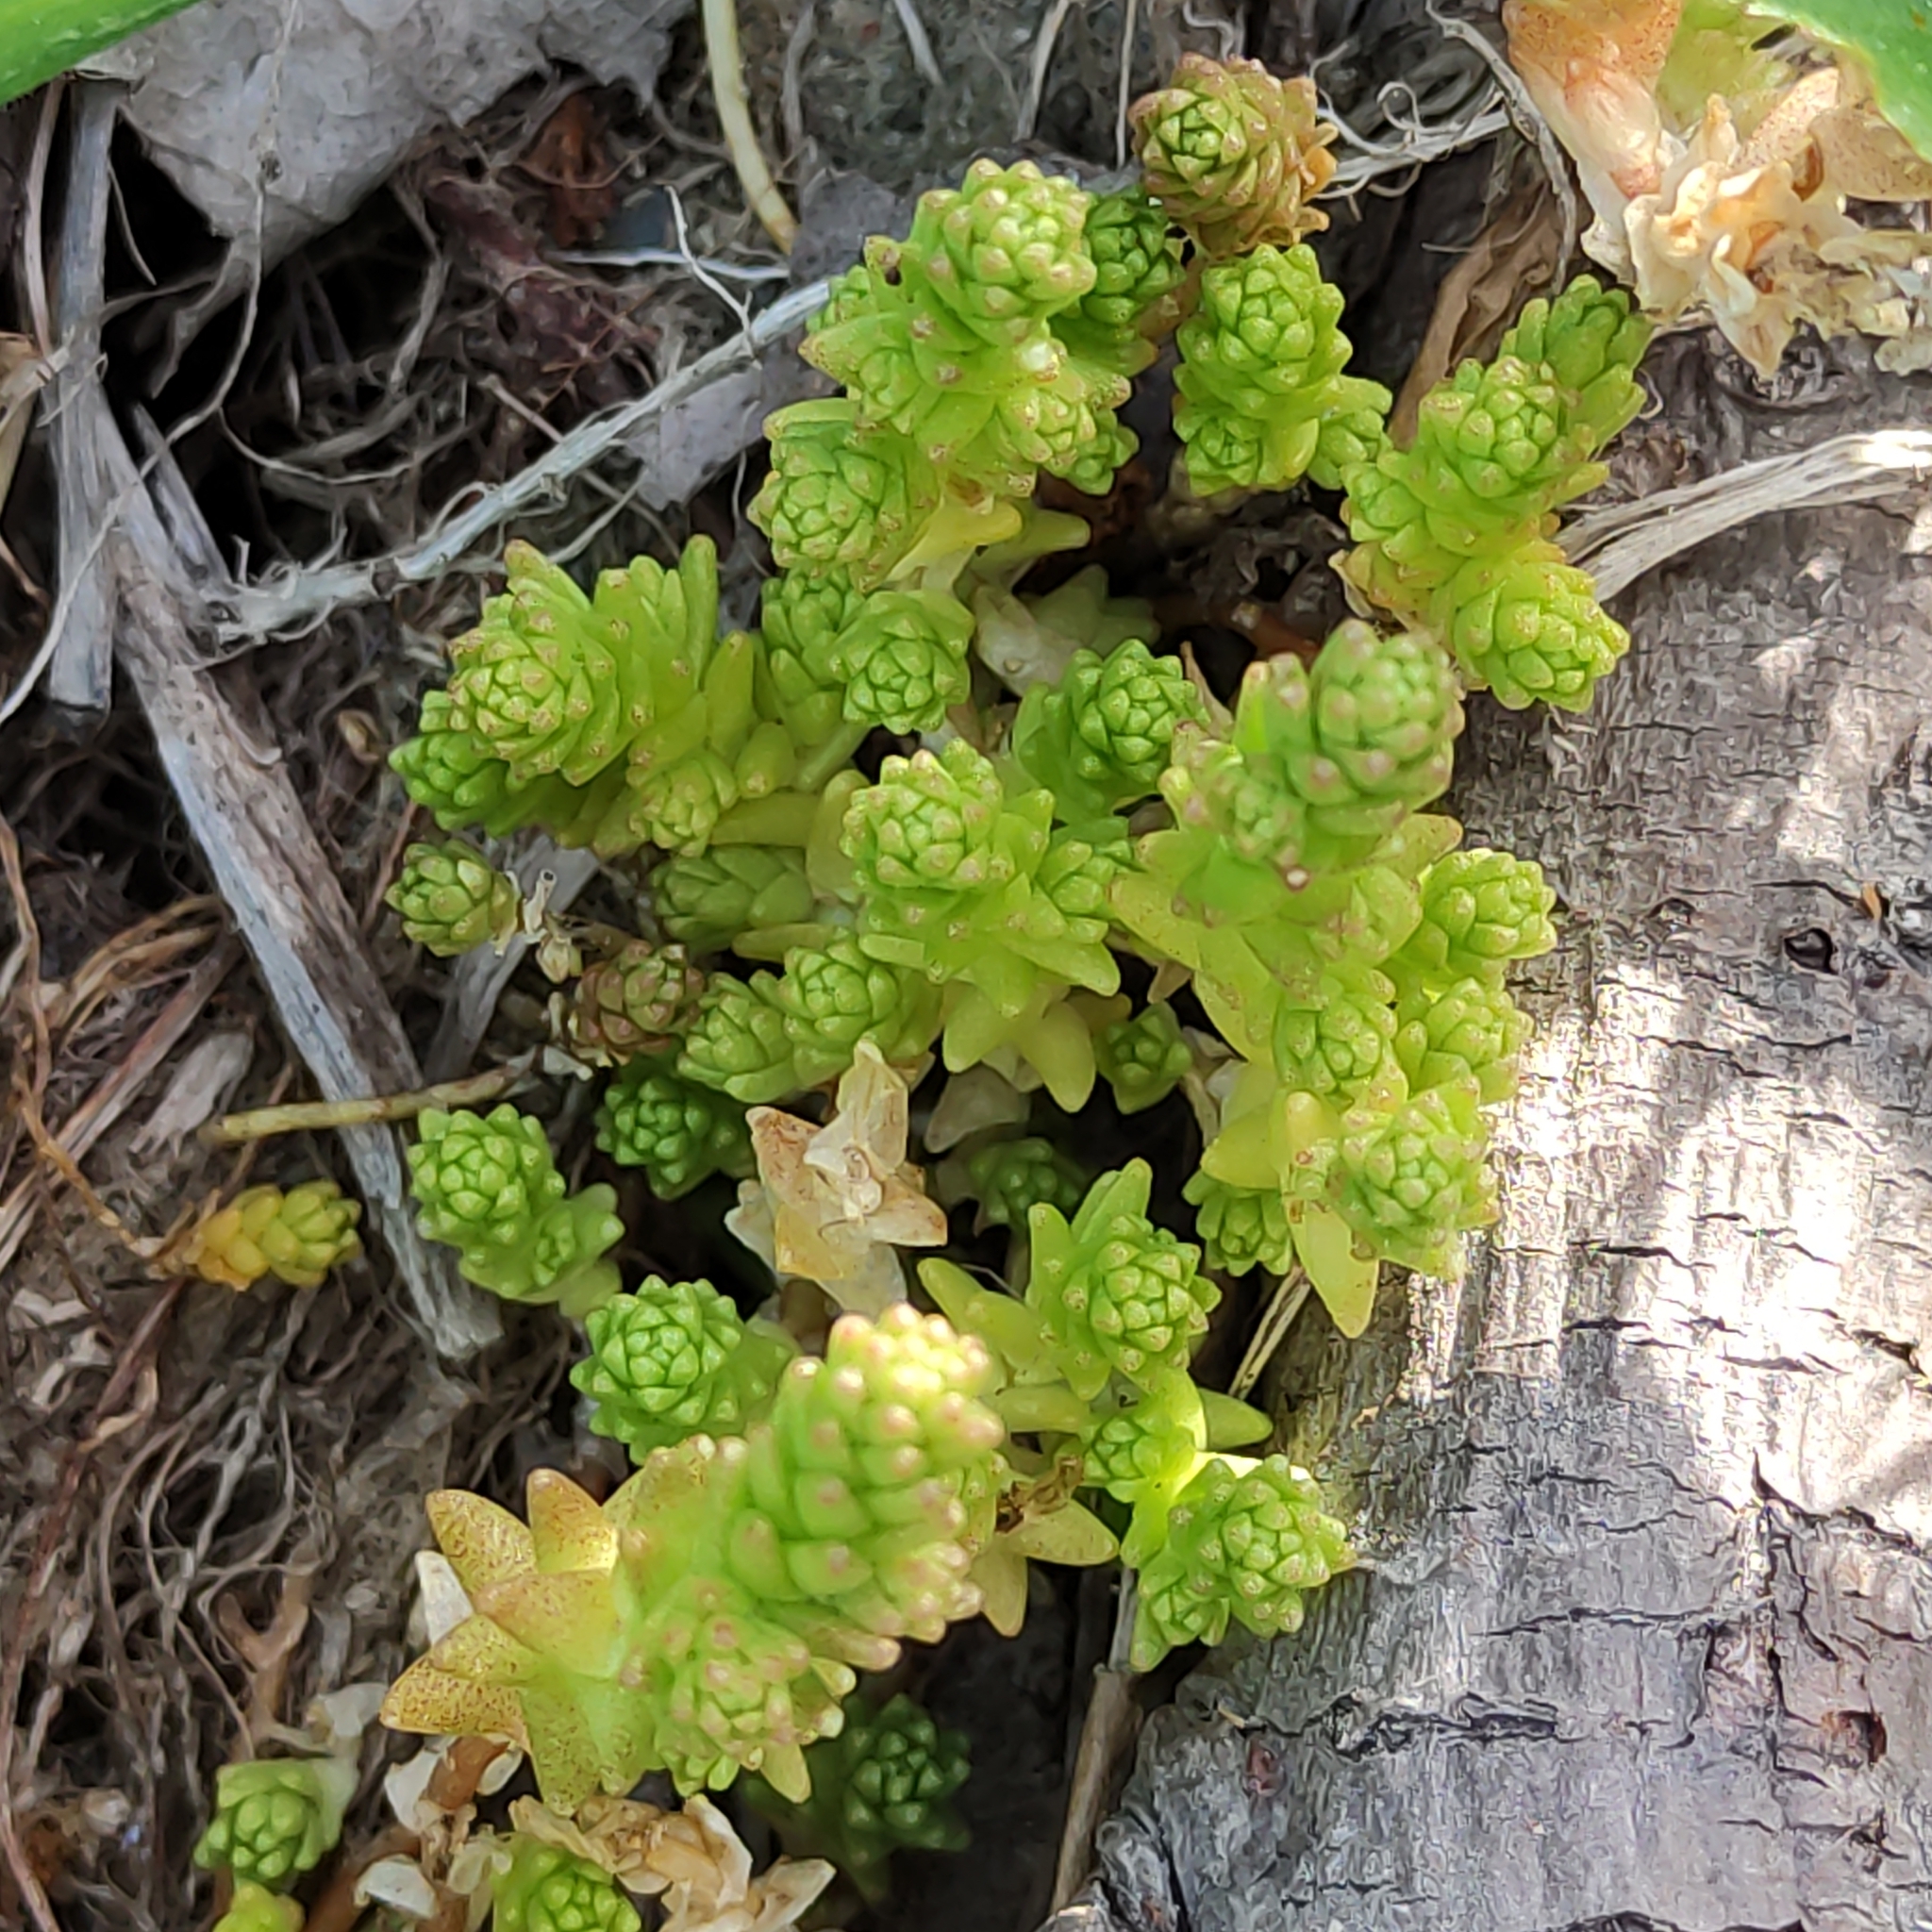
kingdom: Plantae
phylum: Tracheophyta
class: Magnoliopsida
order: Saxifragales
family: Crassulaceae
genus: Sedum
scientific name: Sedum acre
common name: Biting stonecrop
